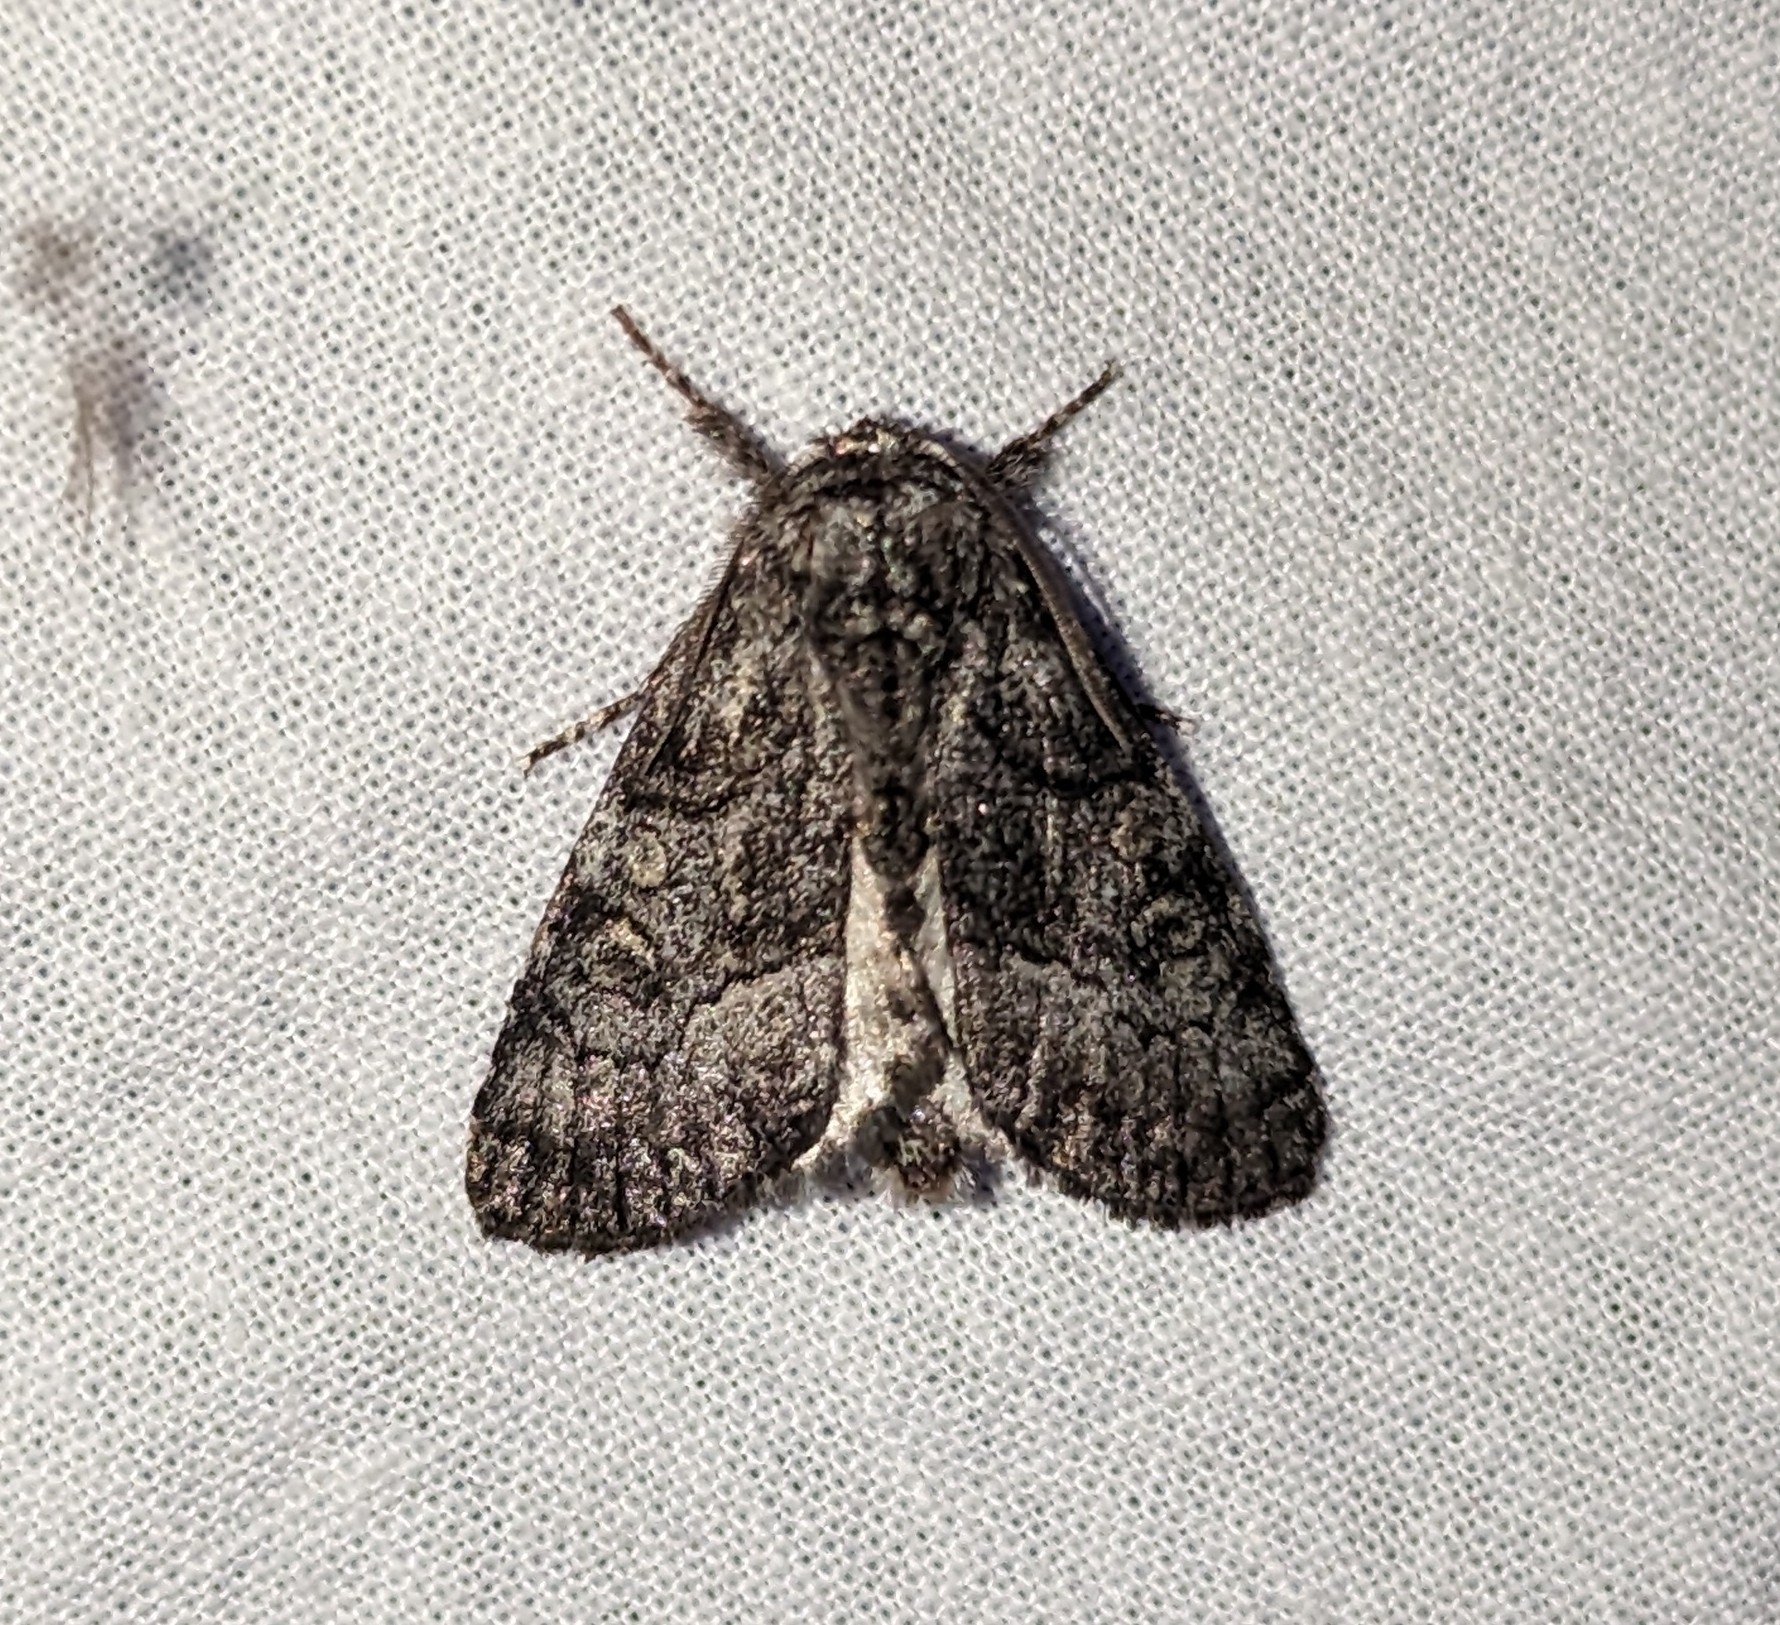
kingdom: Animalia
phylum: Arthropoda
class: Insecta
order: Lepidoptera
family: Noctuidae
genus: Raphia
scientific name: Raphia frater
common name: Brother
